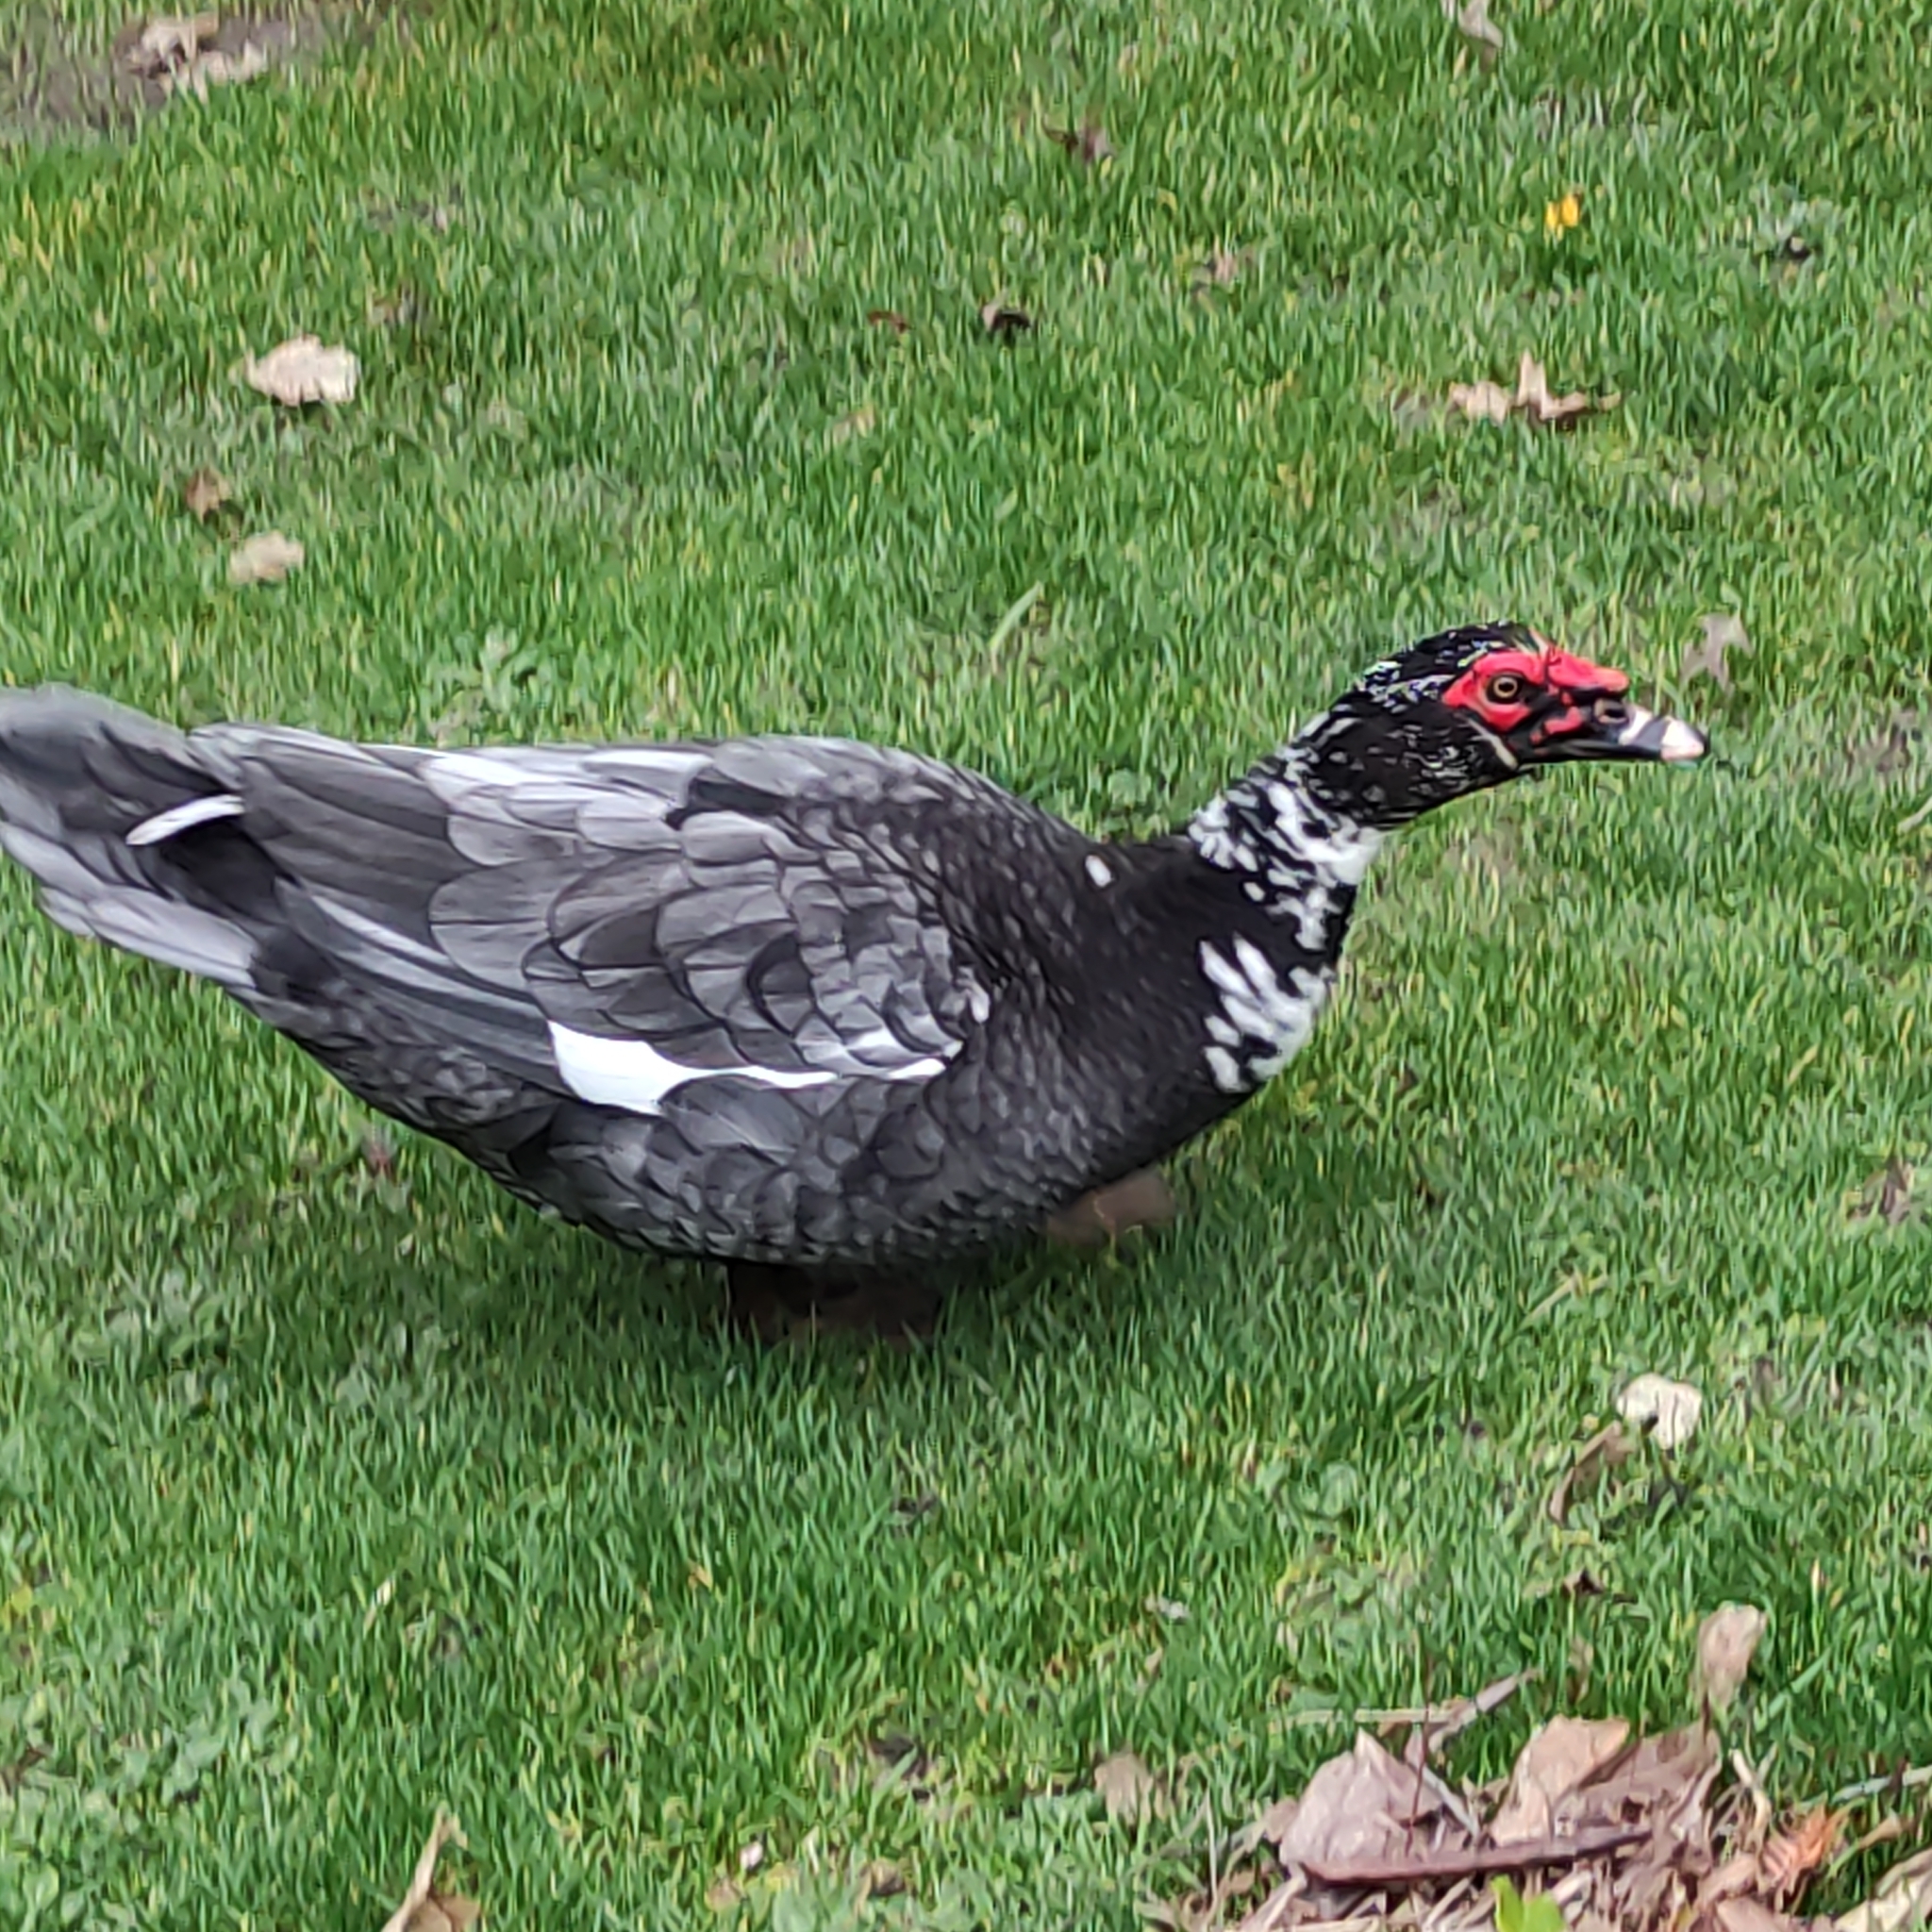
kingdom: Animalia
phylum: Chordata
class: Aves
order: Anseriformes
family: Anatidae
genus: Cairina
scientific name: Cairina moschata
